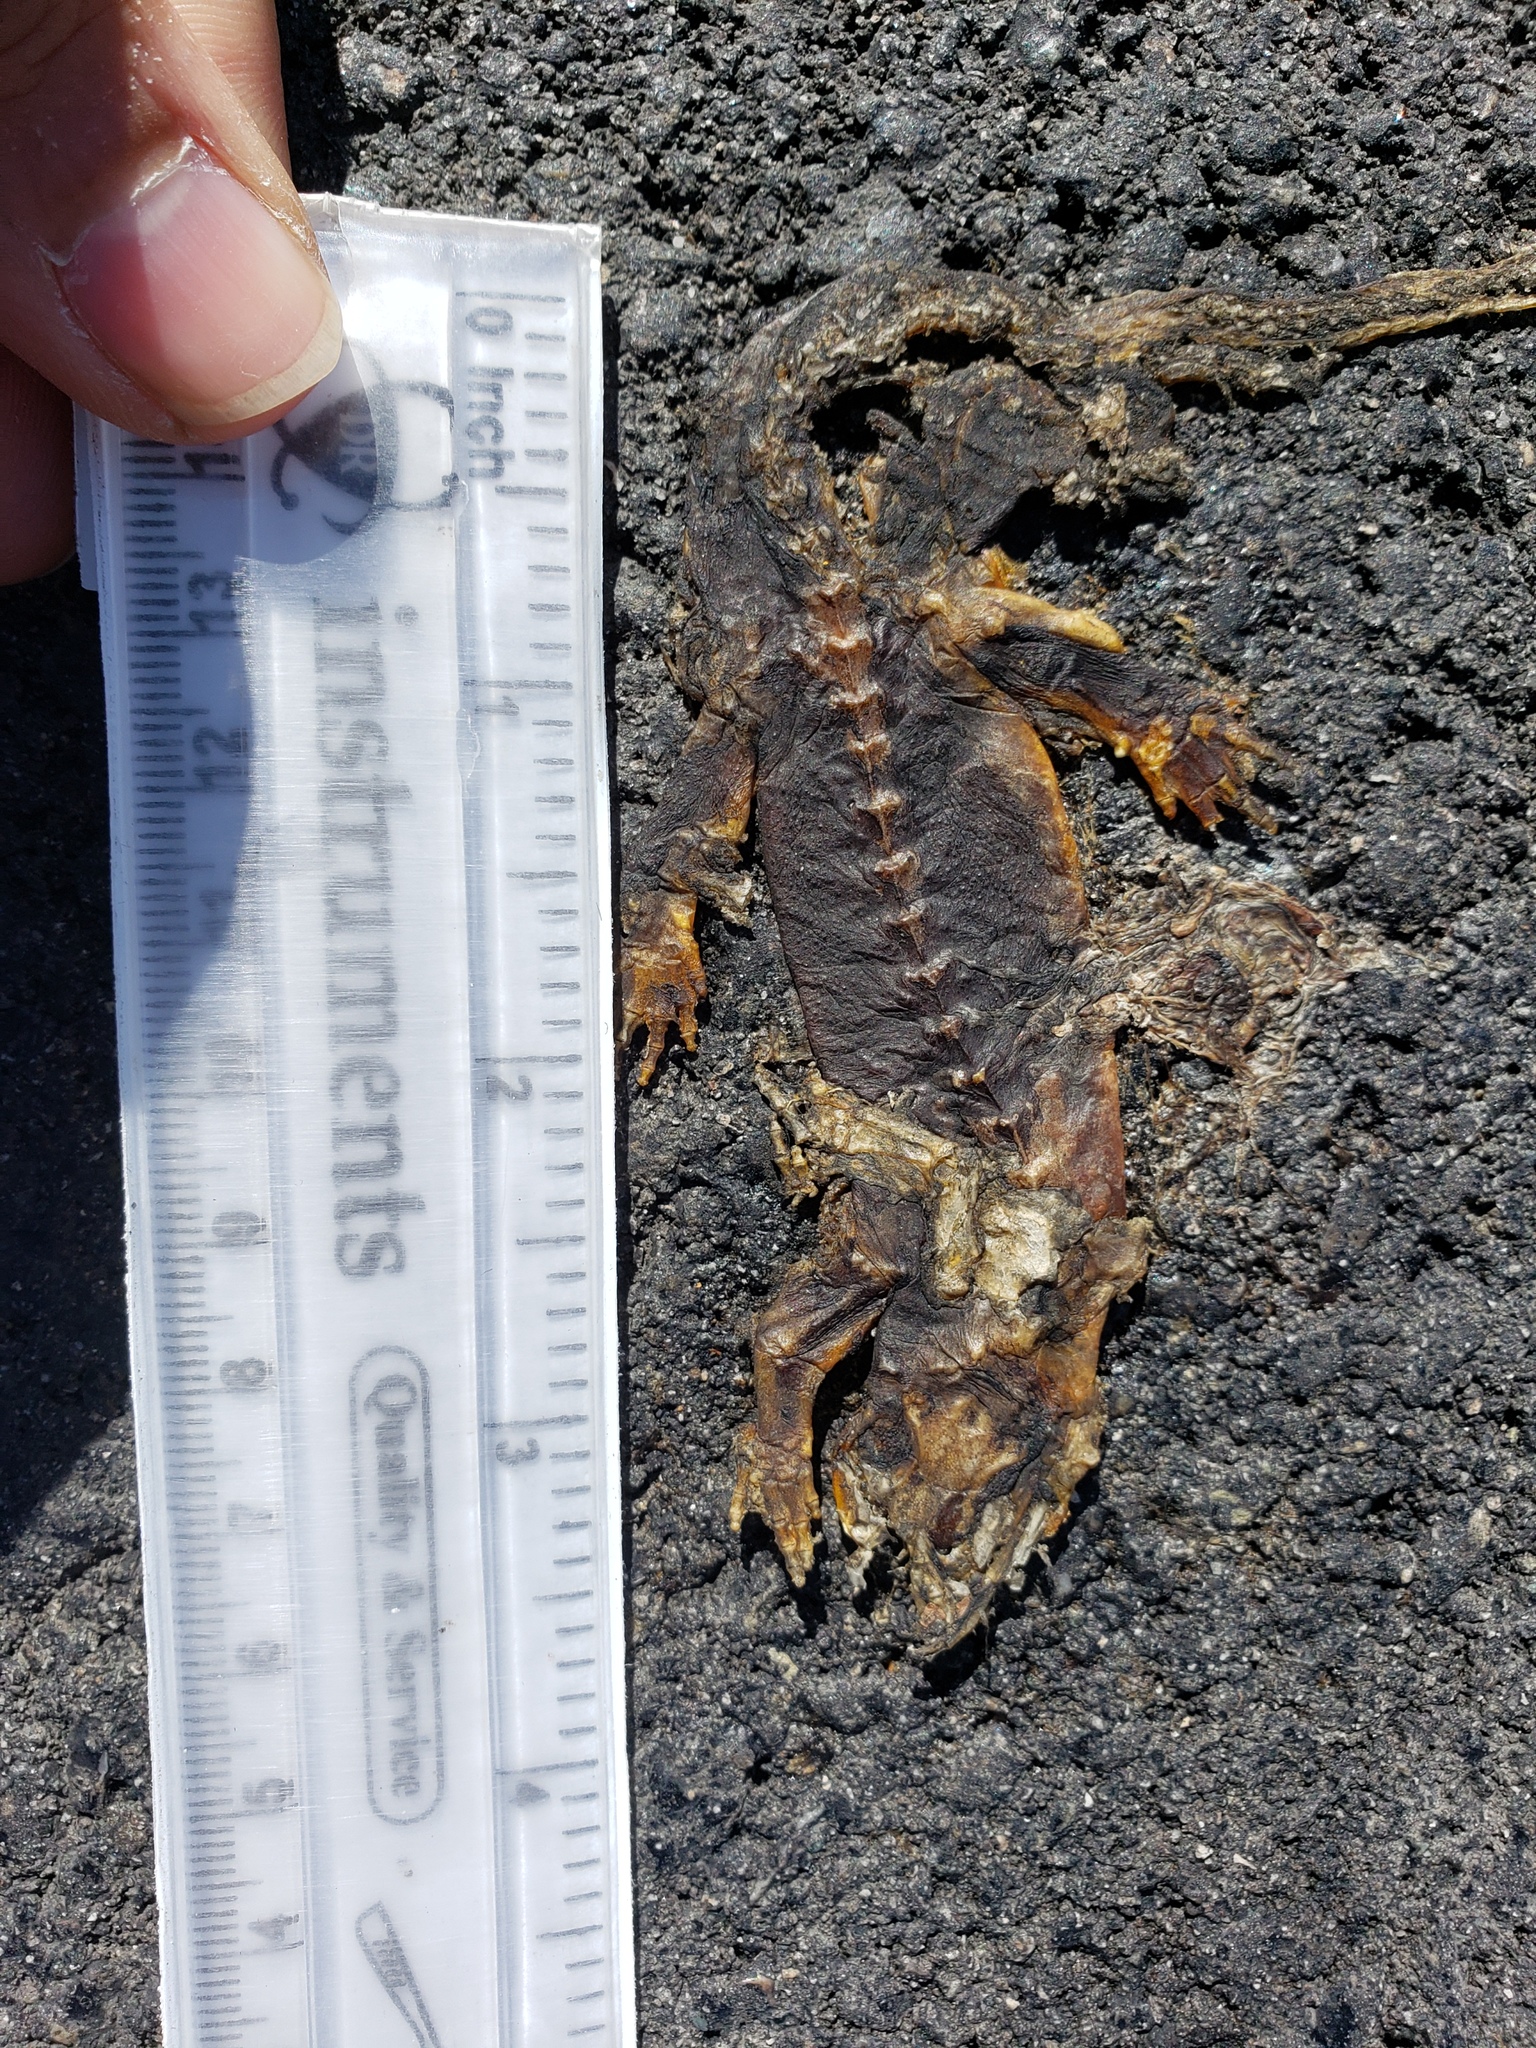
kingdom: Animalia
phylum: Chordata
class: Amphibia
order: Caudata
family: Salamandridae
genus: Taricha
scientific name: Taricha
